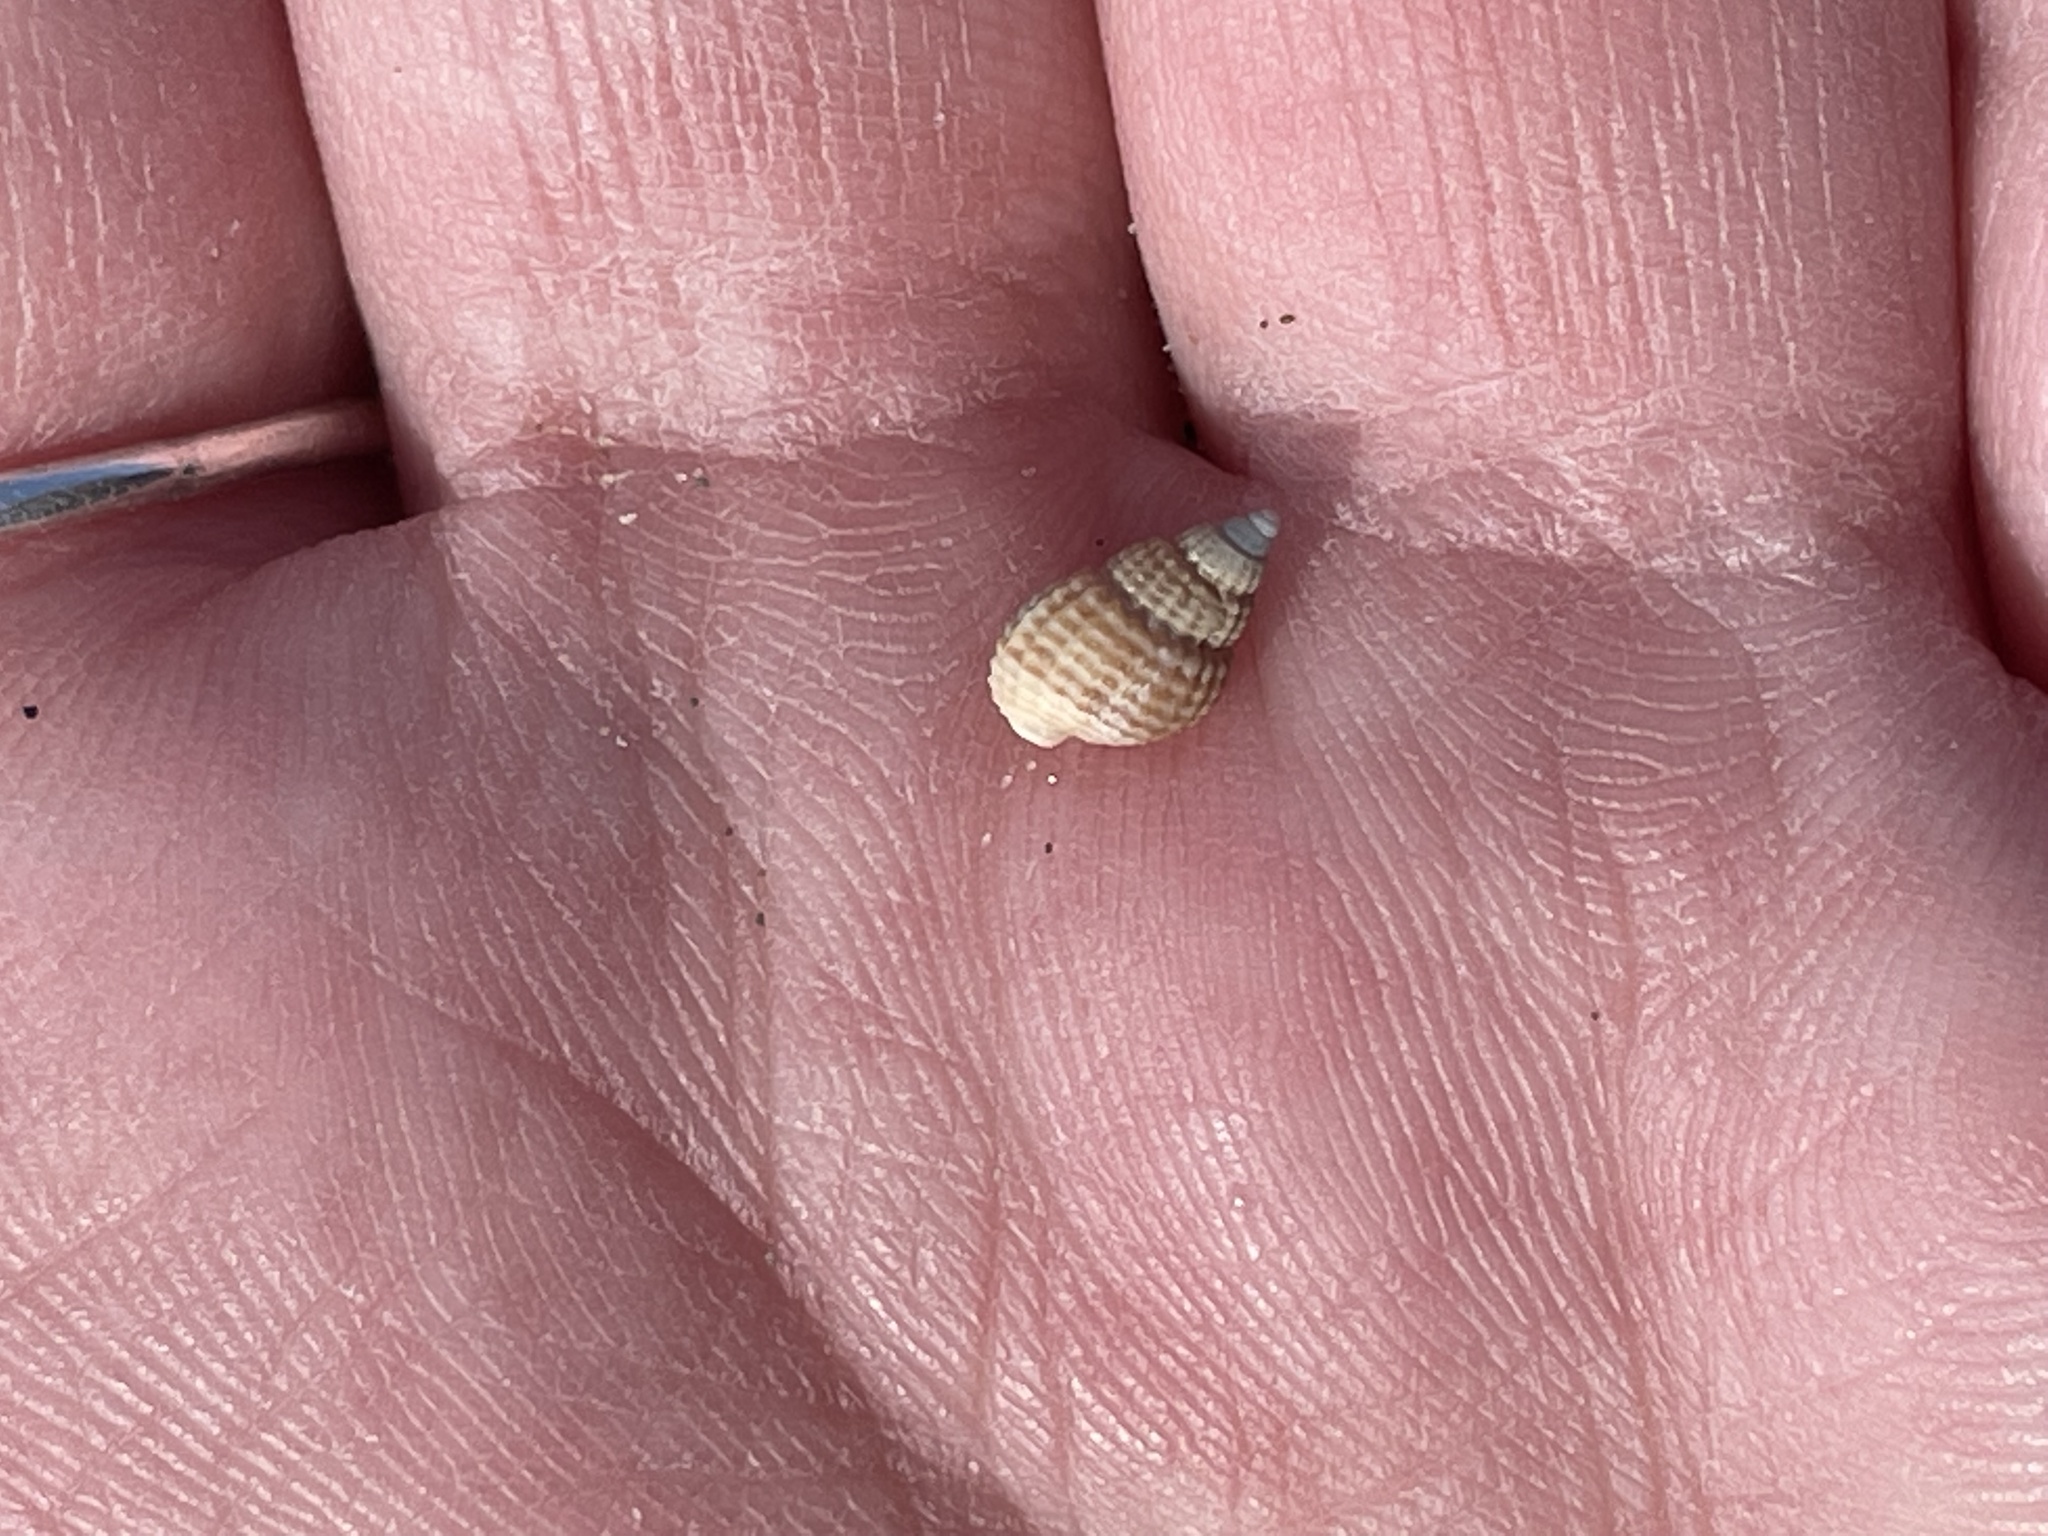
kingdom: Animalia
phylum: Mollusca
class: Gastropoda
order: Neogastropoda
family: Nassariidae
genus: Ilyanassa
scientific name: Ilyanassa trivittata
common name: Three-line mudsnail
